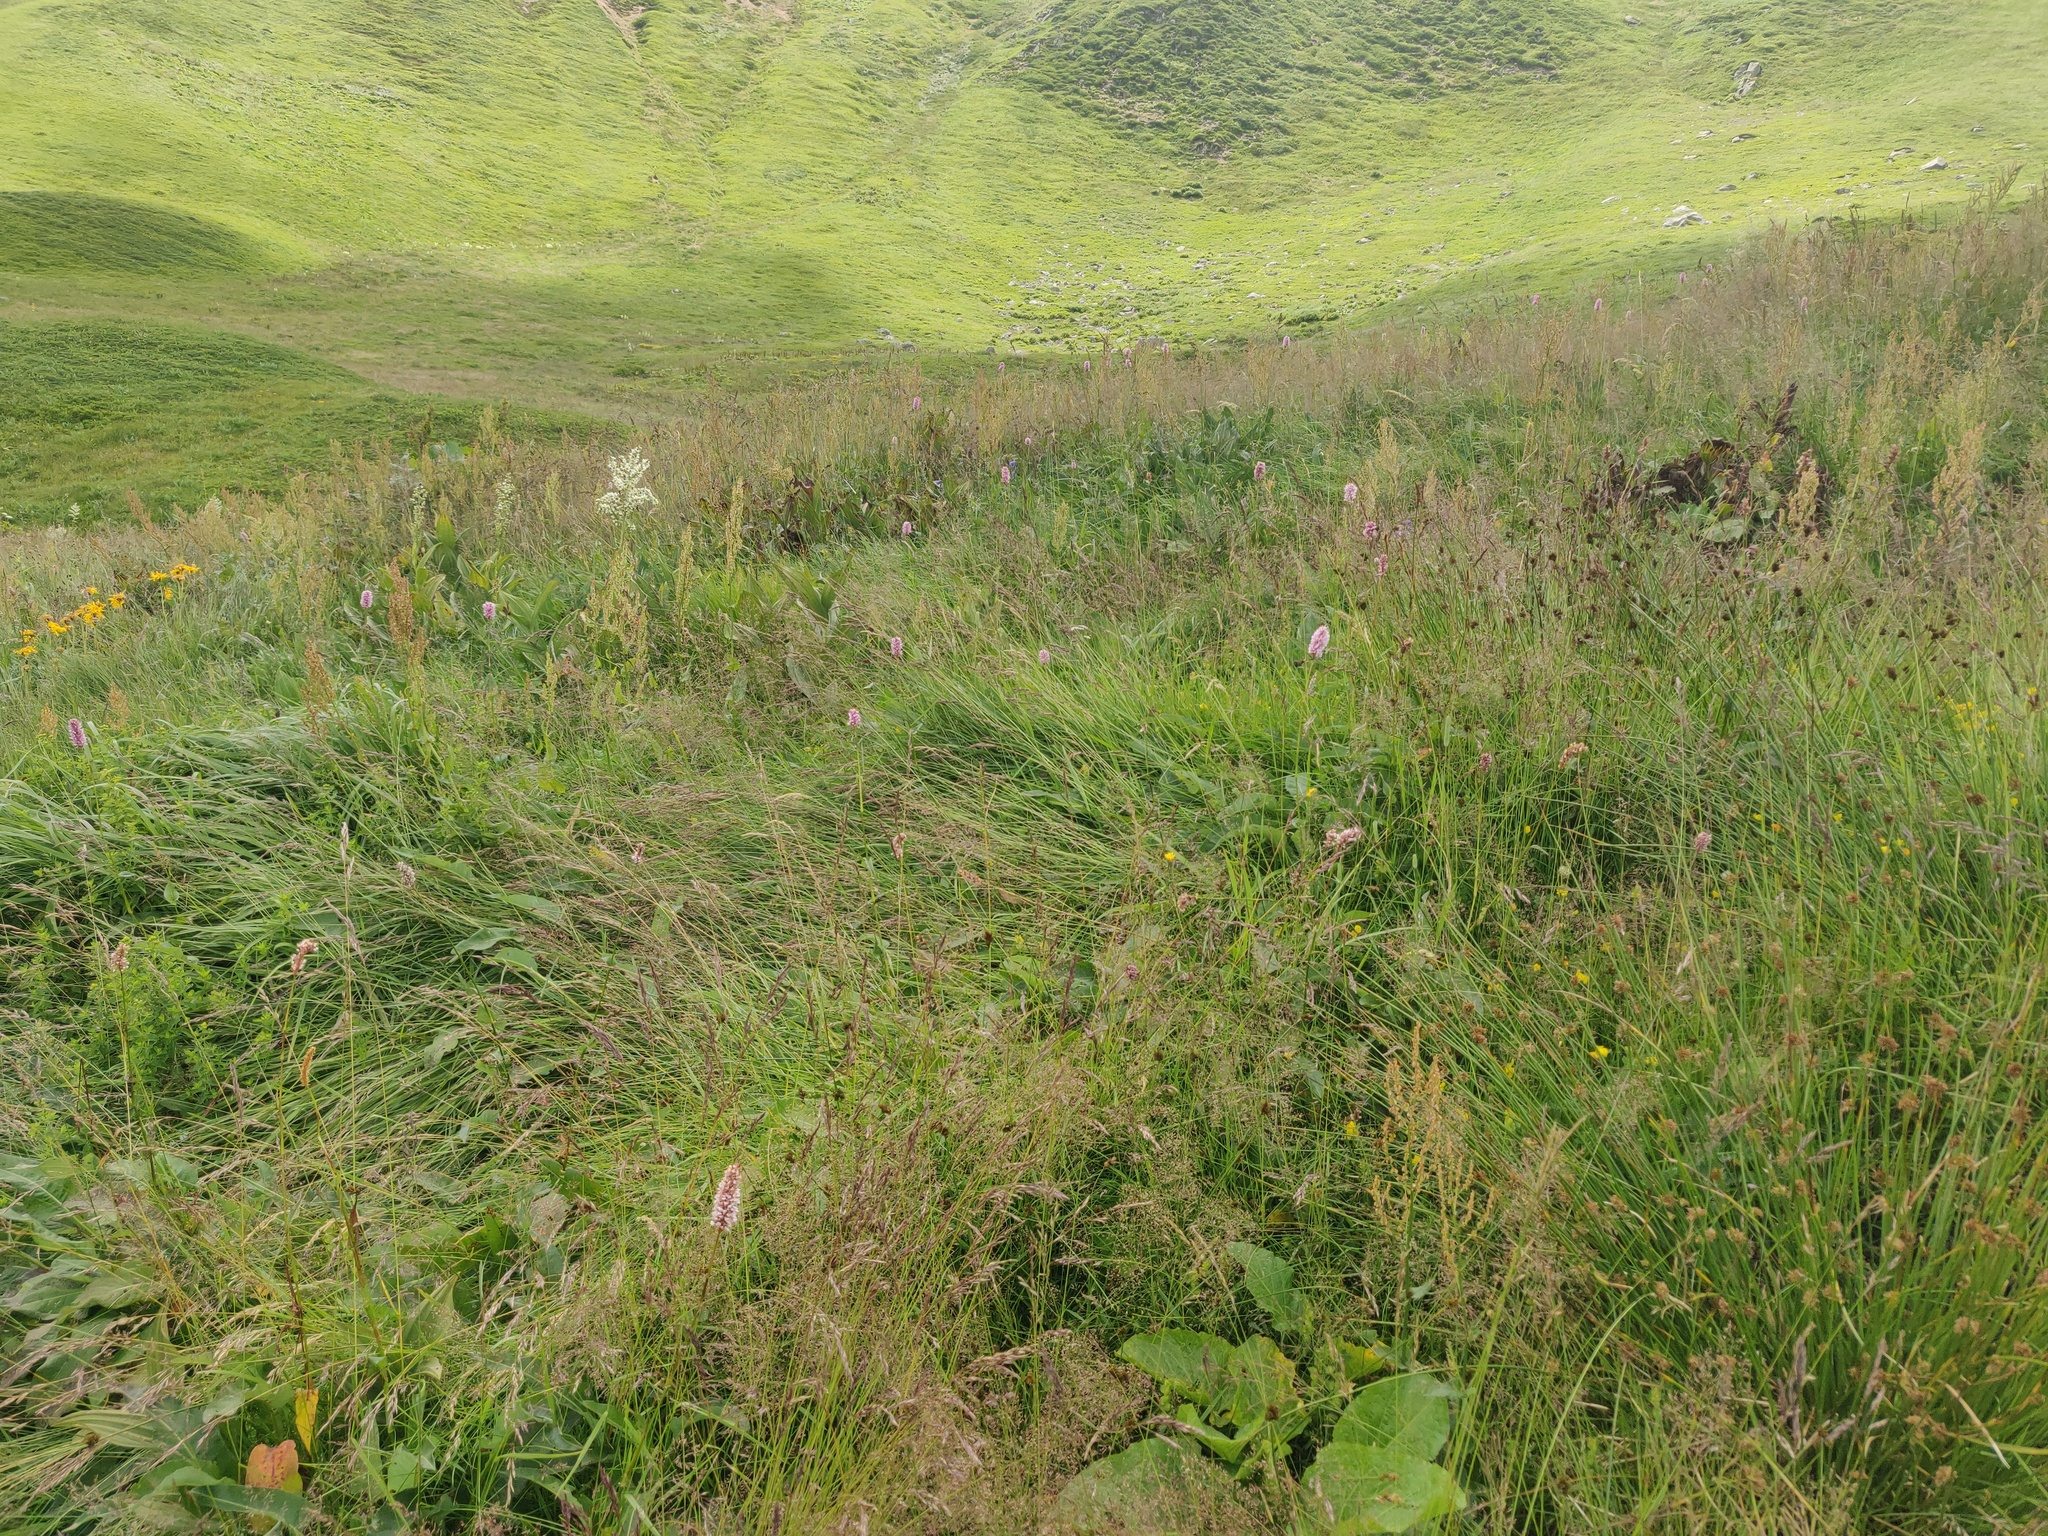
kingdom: Plantae
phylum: Tracheophyta
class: Magnoliopsida
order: Caryophyllales
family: Polygonaceae
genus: Bistorta
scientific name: Bistorta officinalis
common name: Common bistort
